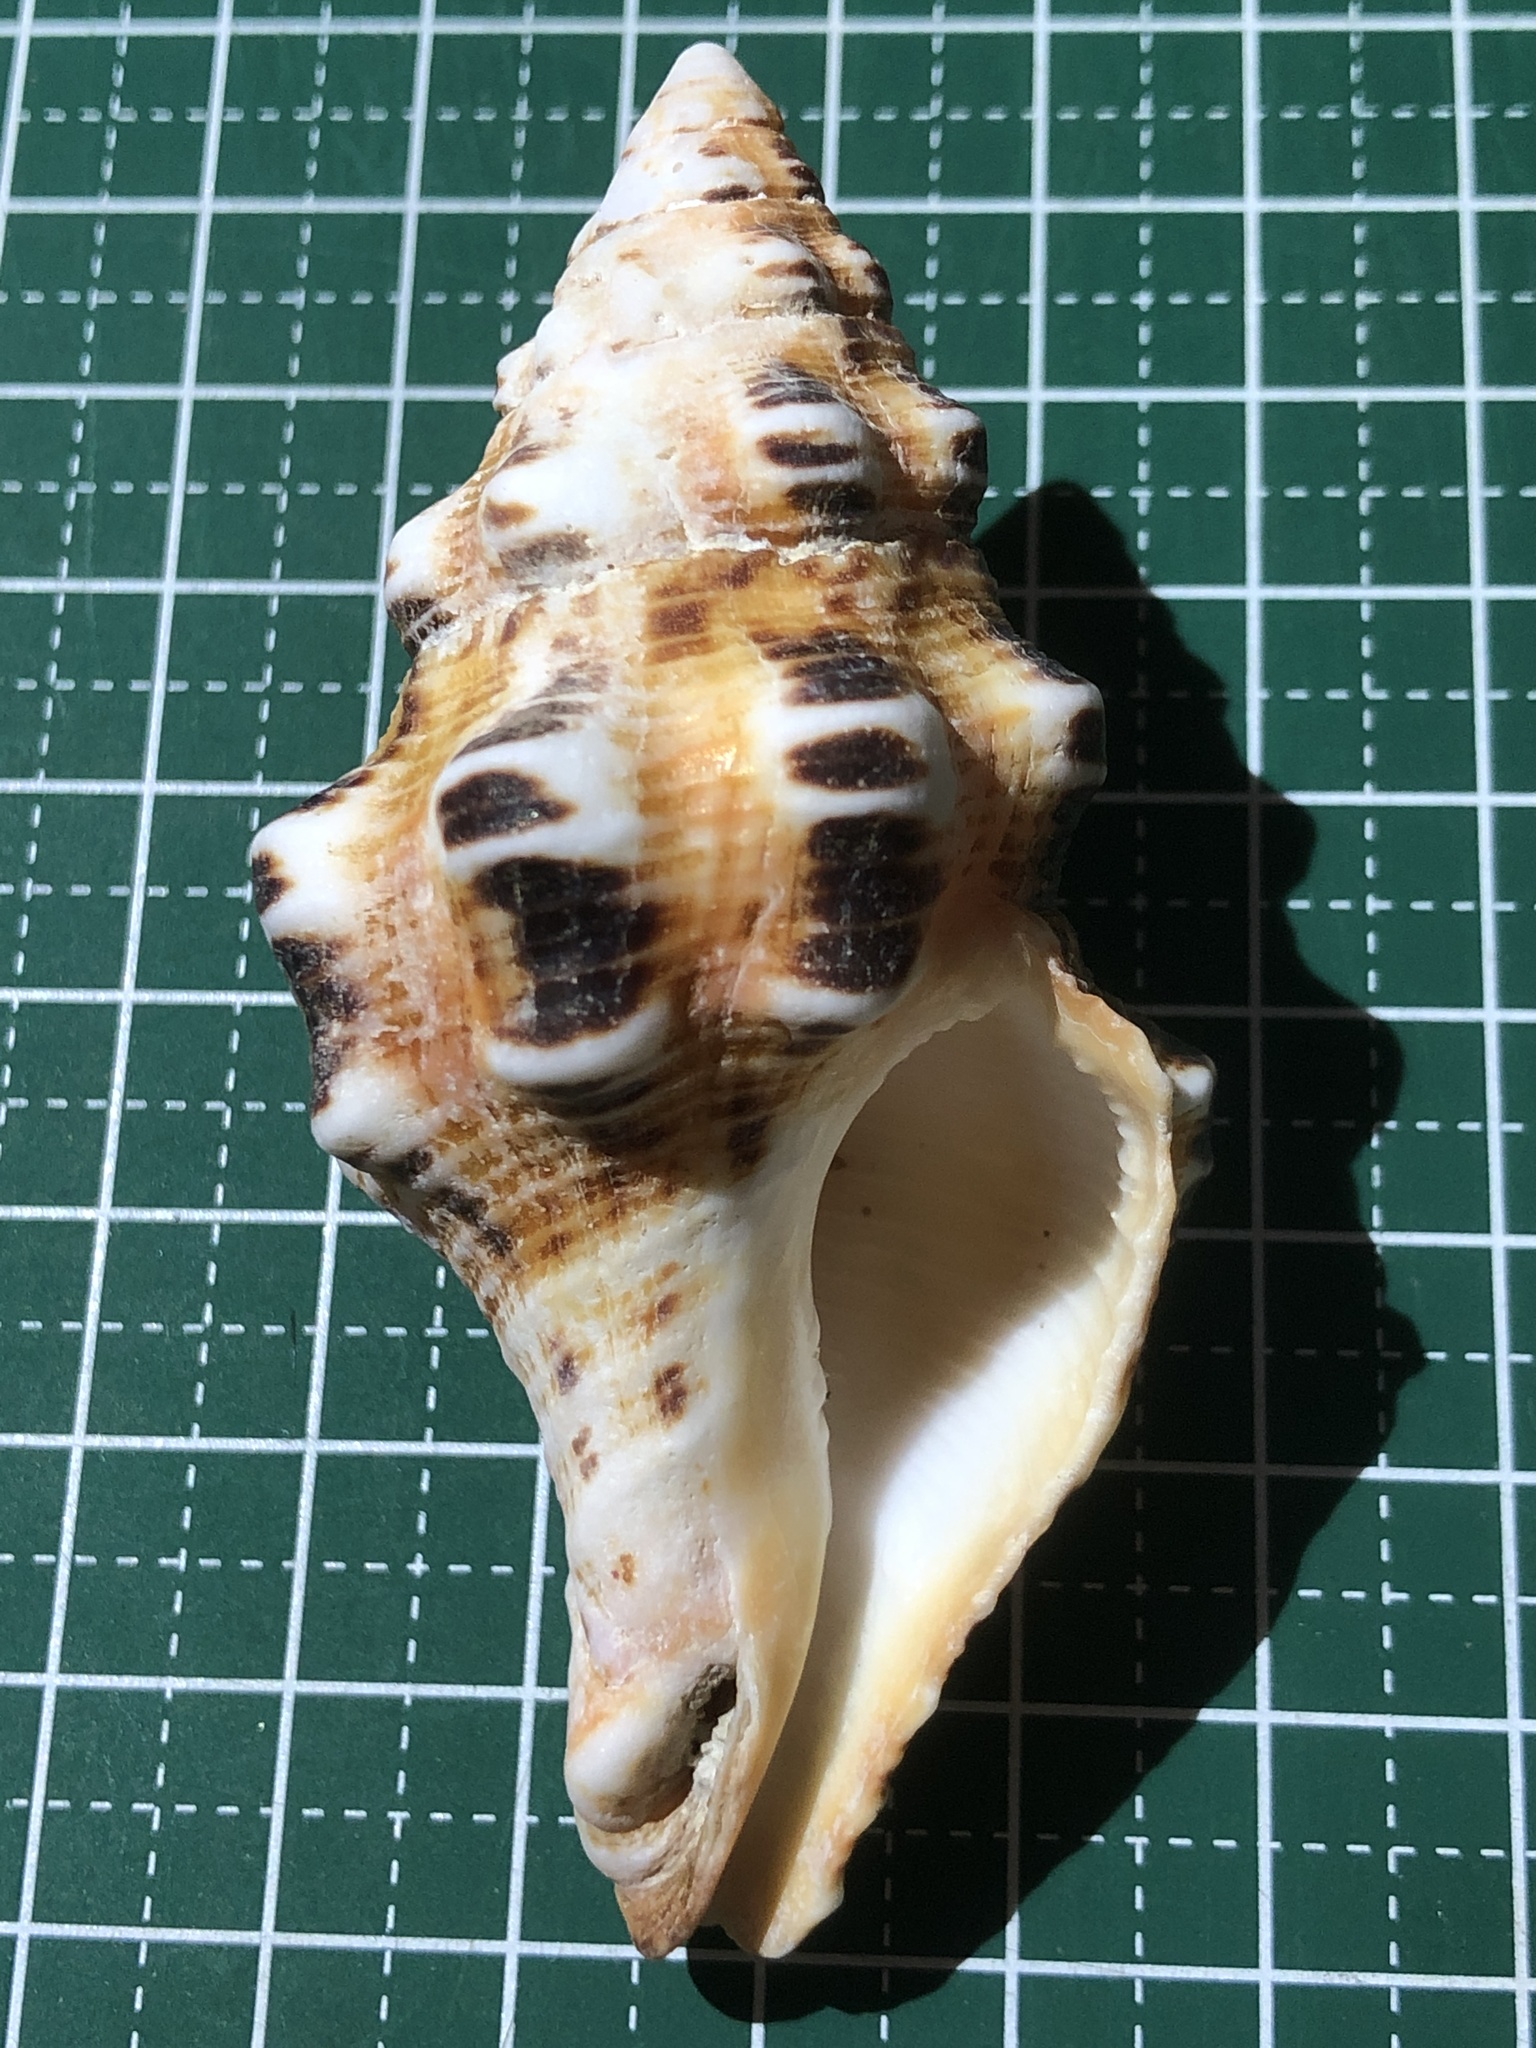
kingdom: Animalia
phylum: Mollusca
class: Gastropoda
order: Neogastropoda
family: Fasciolariidae
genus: Latirus
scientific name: Latirus polygonus
